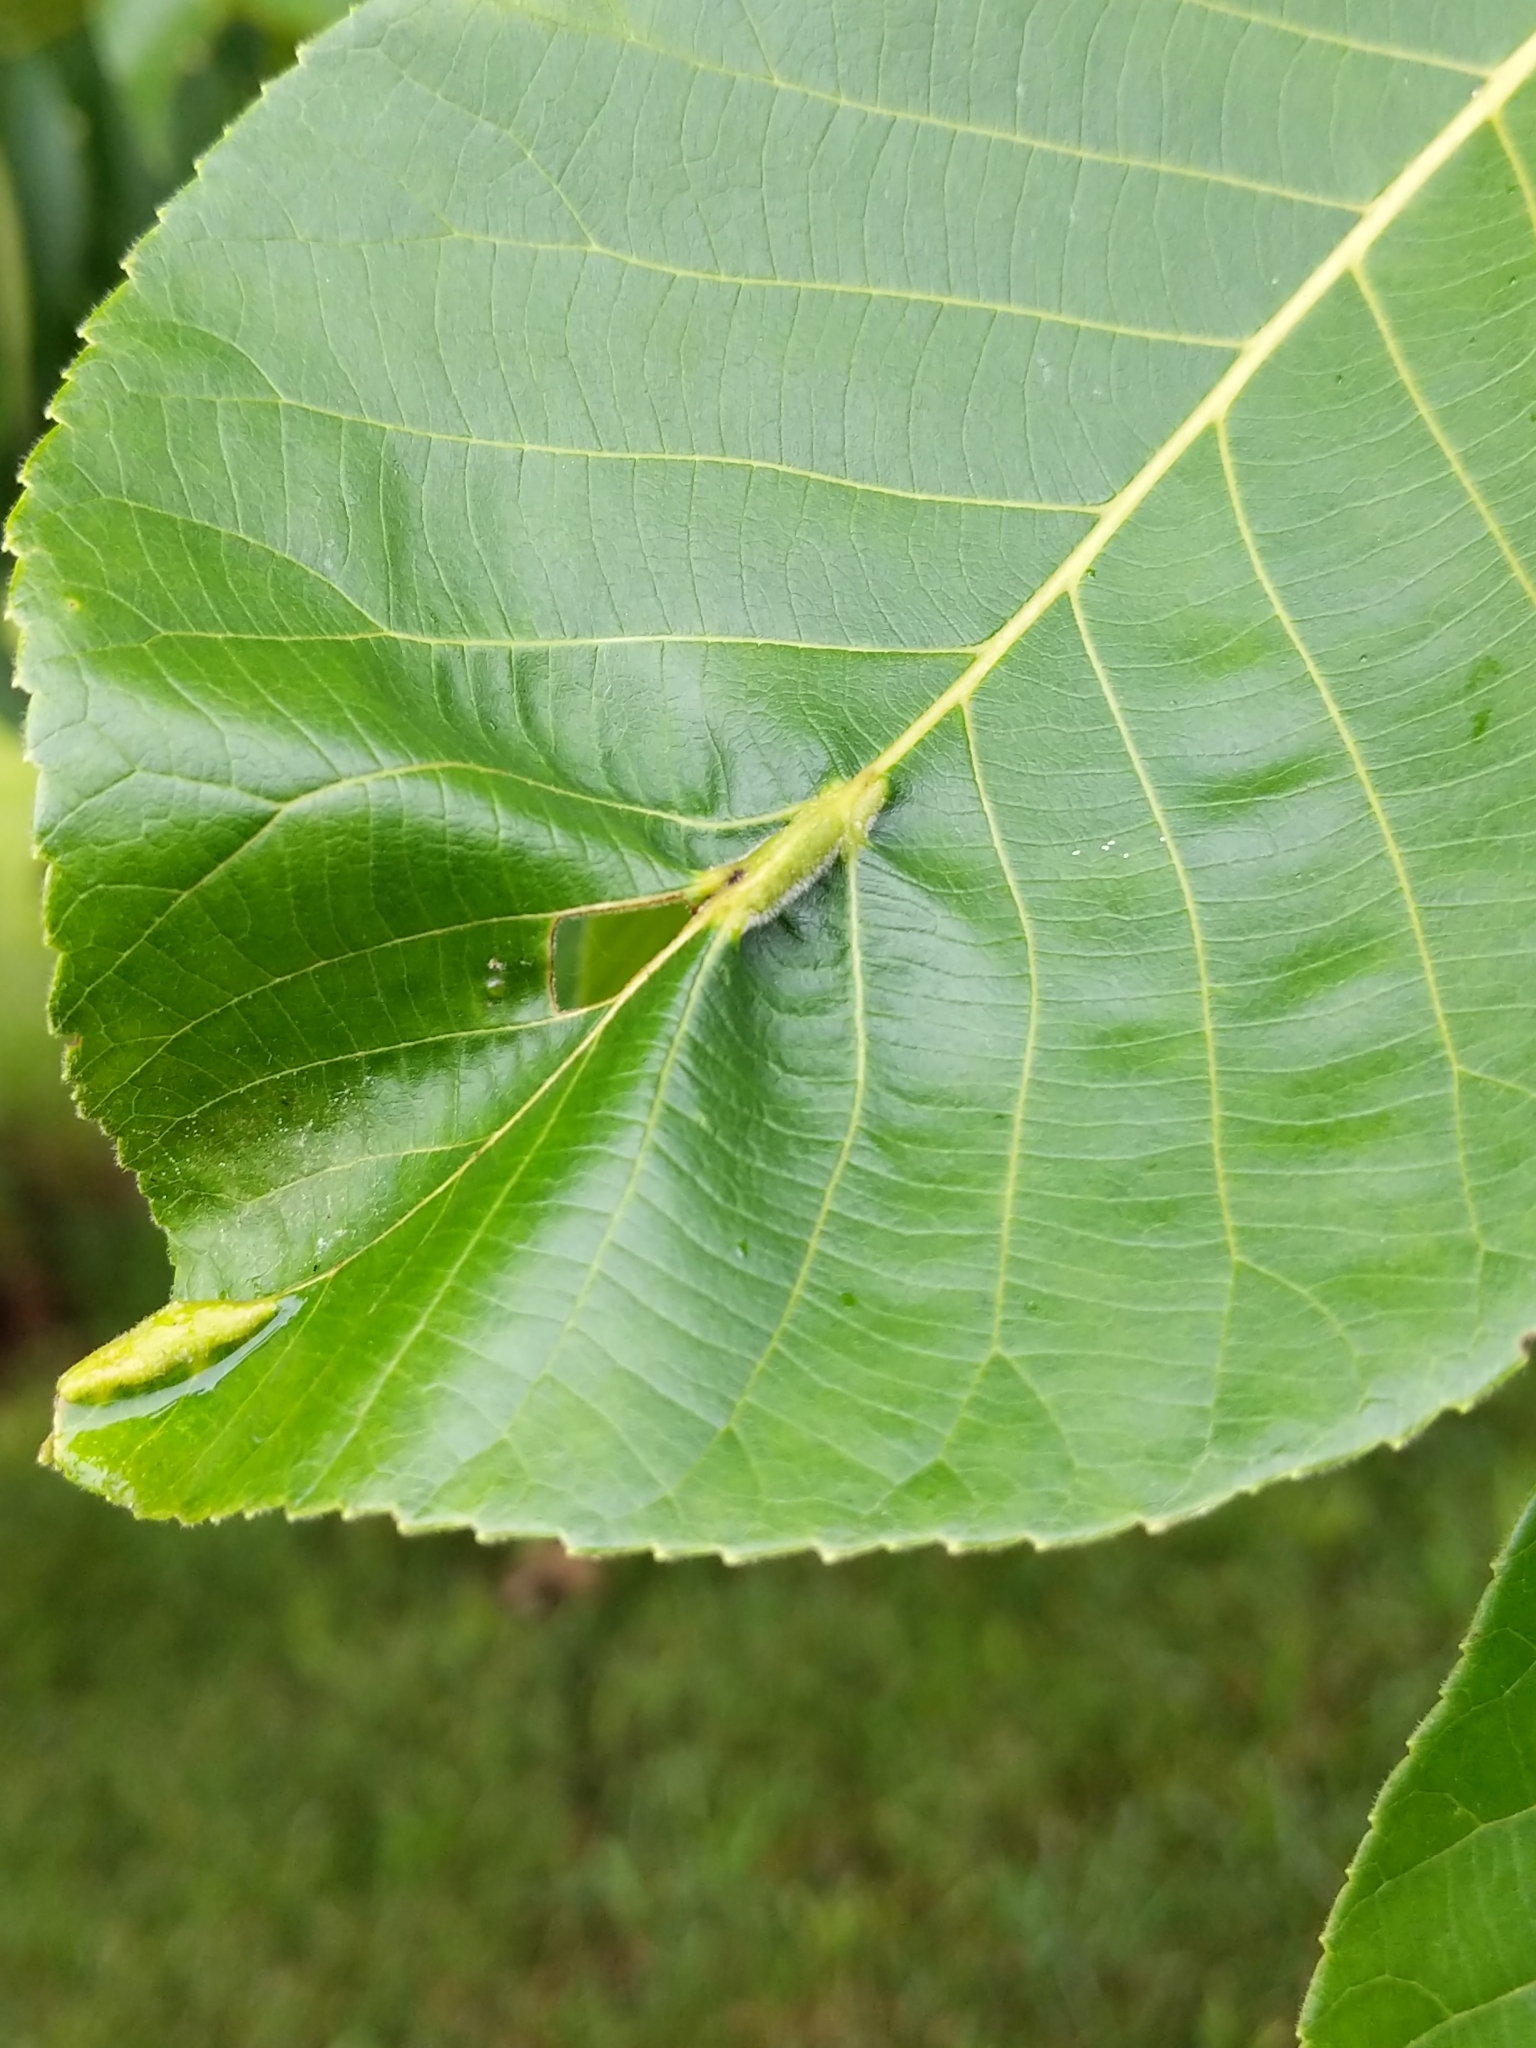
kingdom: Animalia
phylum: Arthropoda
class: Insecta
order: Hemiptera
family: Phylloxeridae
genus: Phylloxera
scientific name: Phylloxera caryaevenae
